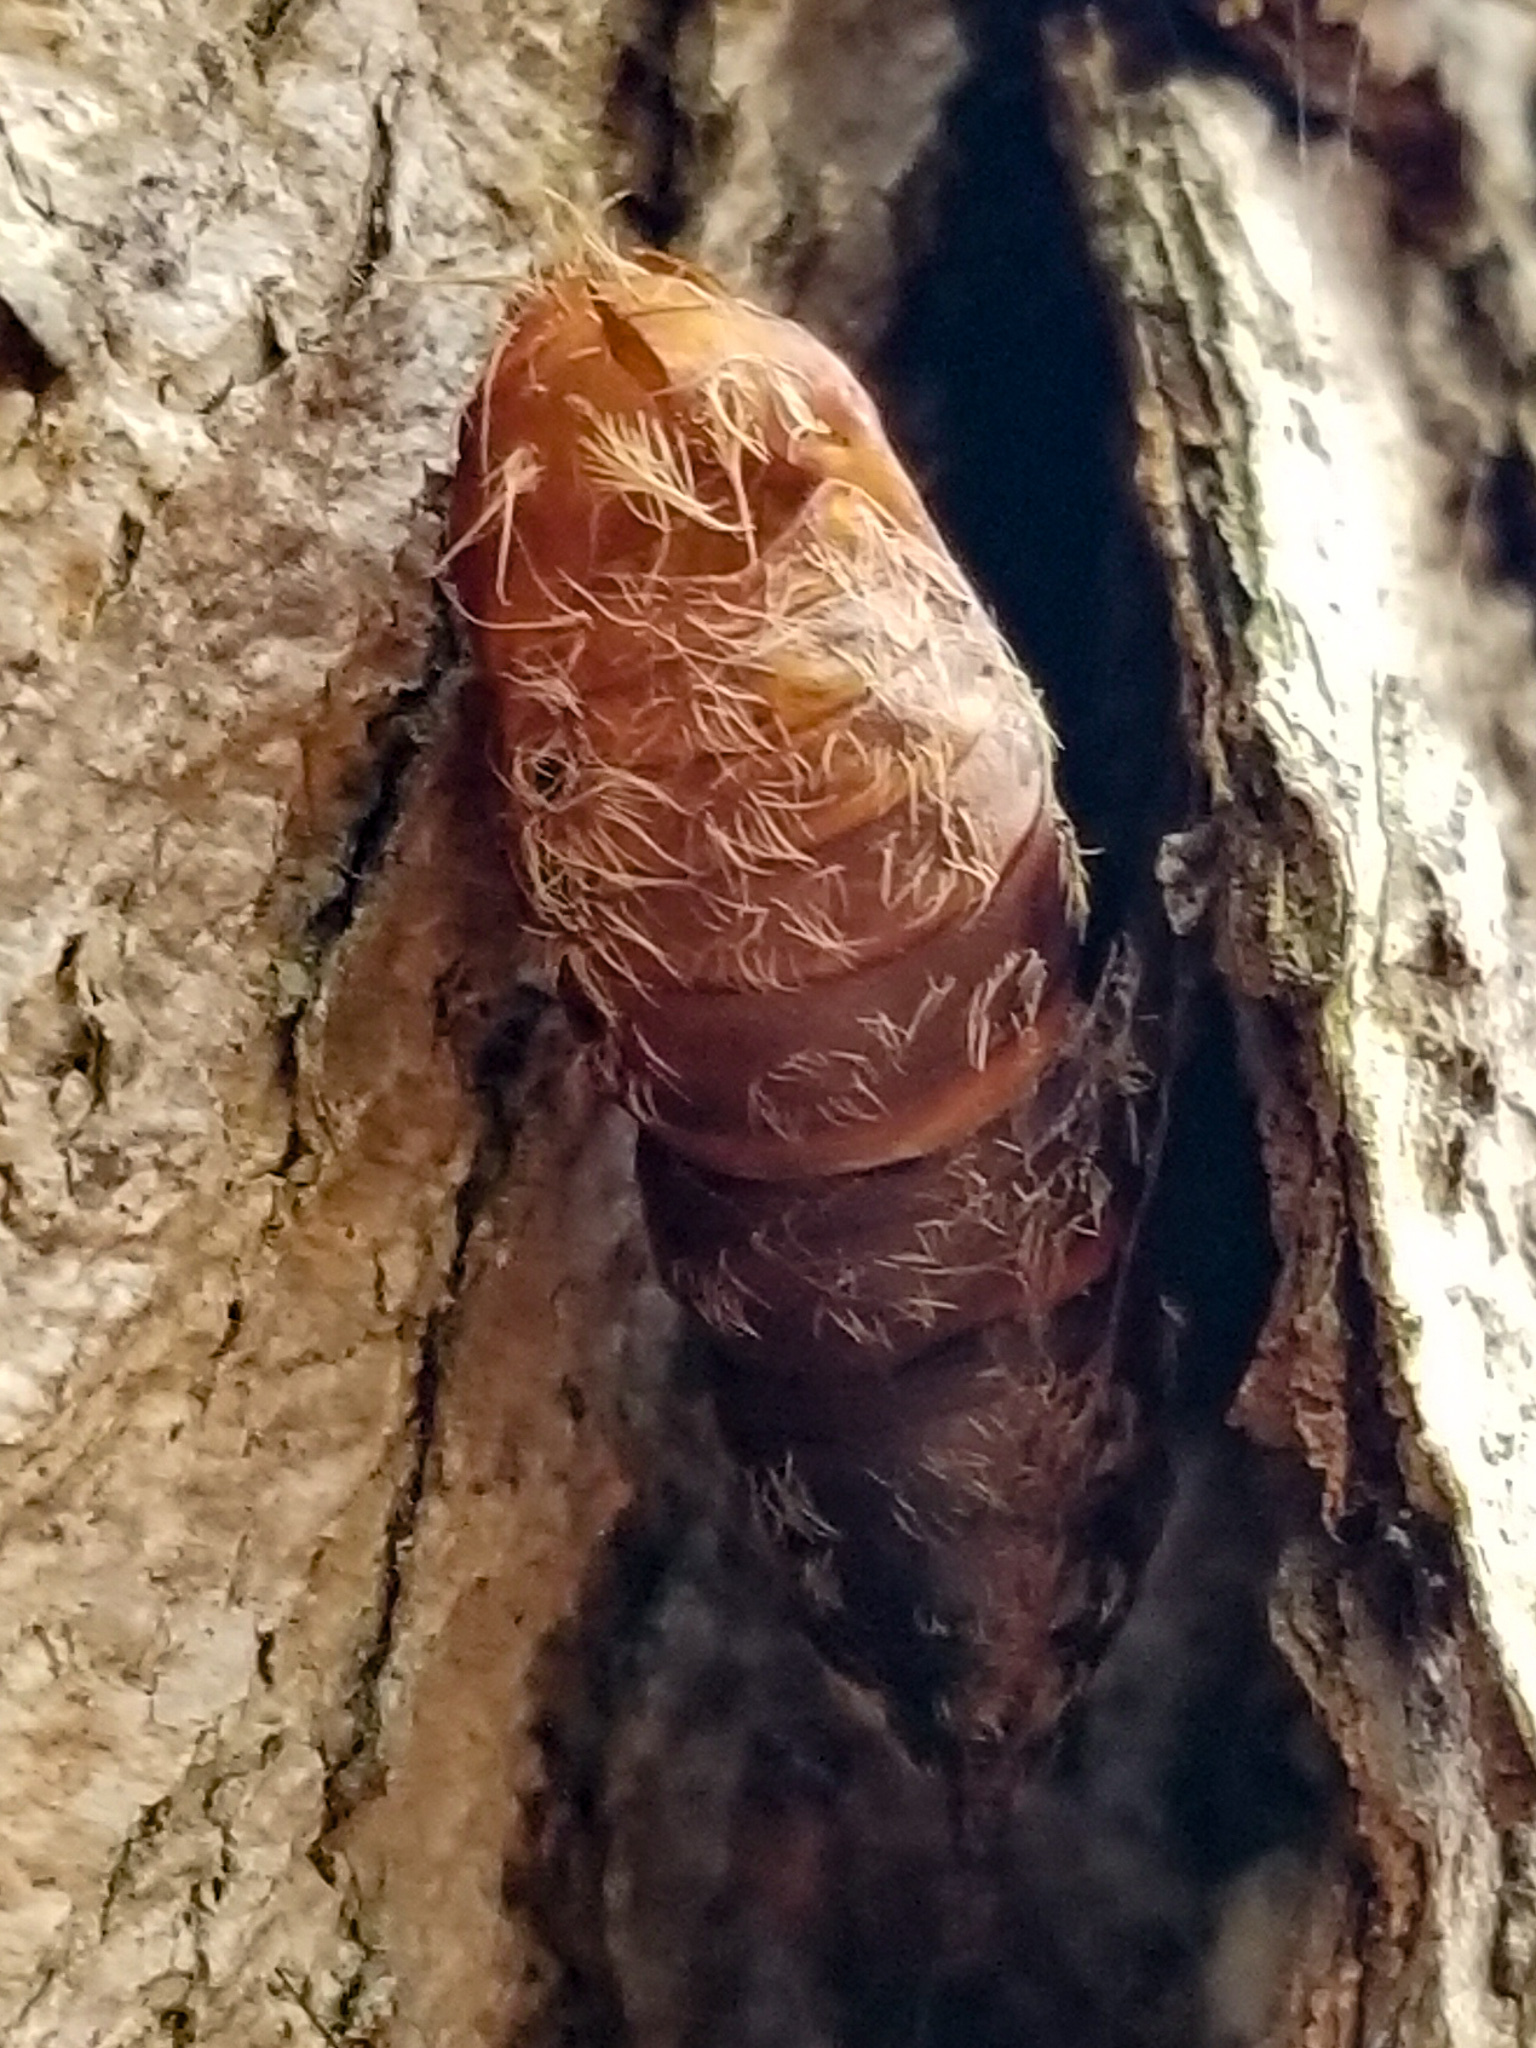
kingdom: Animalia
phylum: Arthropoda
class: Insecta
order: Lepidoptera
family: Erebidae
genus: Lymantria
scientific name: Lymantria dispar
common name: Gypsy moth
